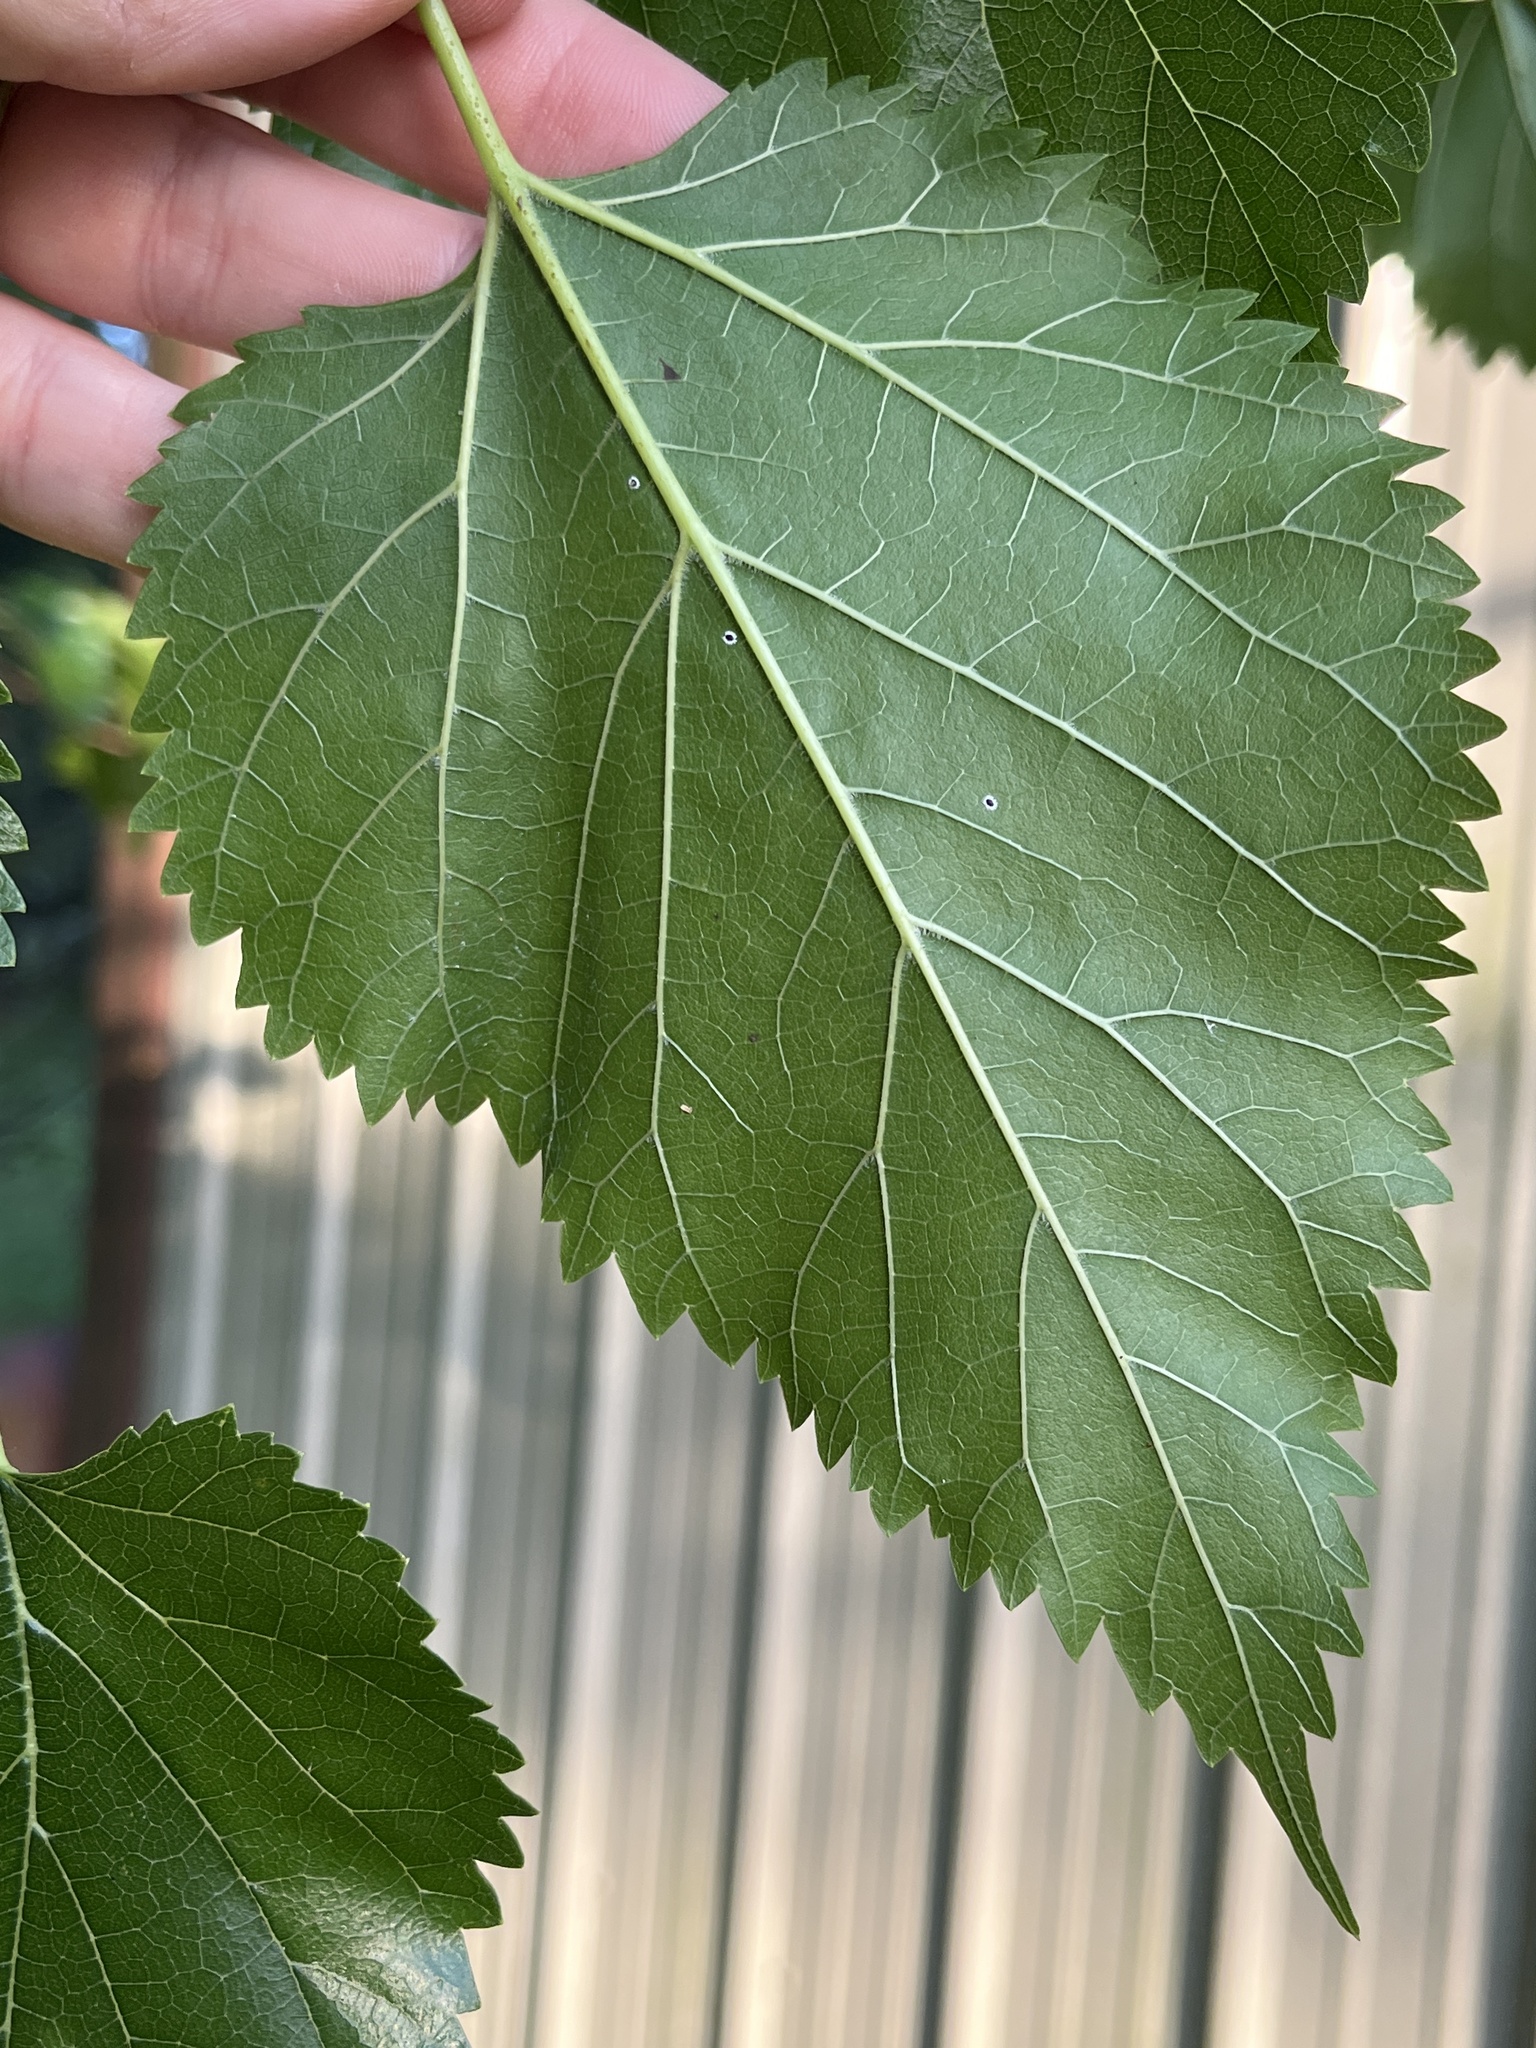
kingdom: Plantae
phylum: Tracheophyta
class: Magnoliopsida
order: Rosales
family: Moraceae
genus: Morus
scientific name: Morus alba
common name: White mulberry
